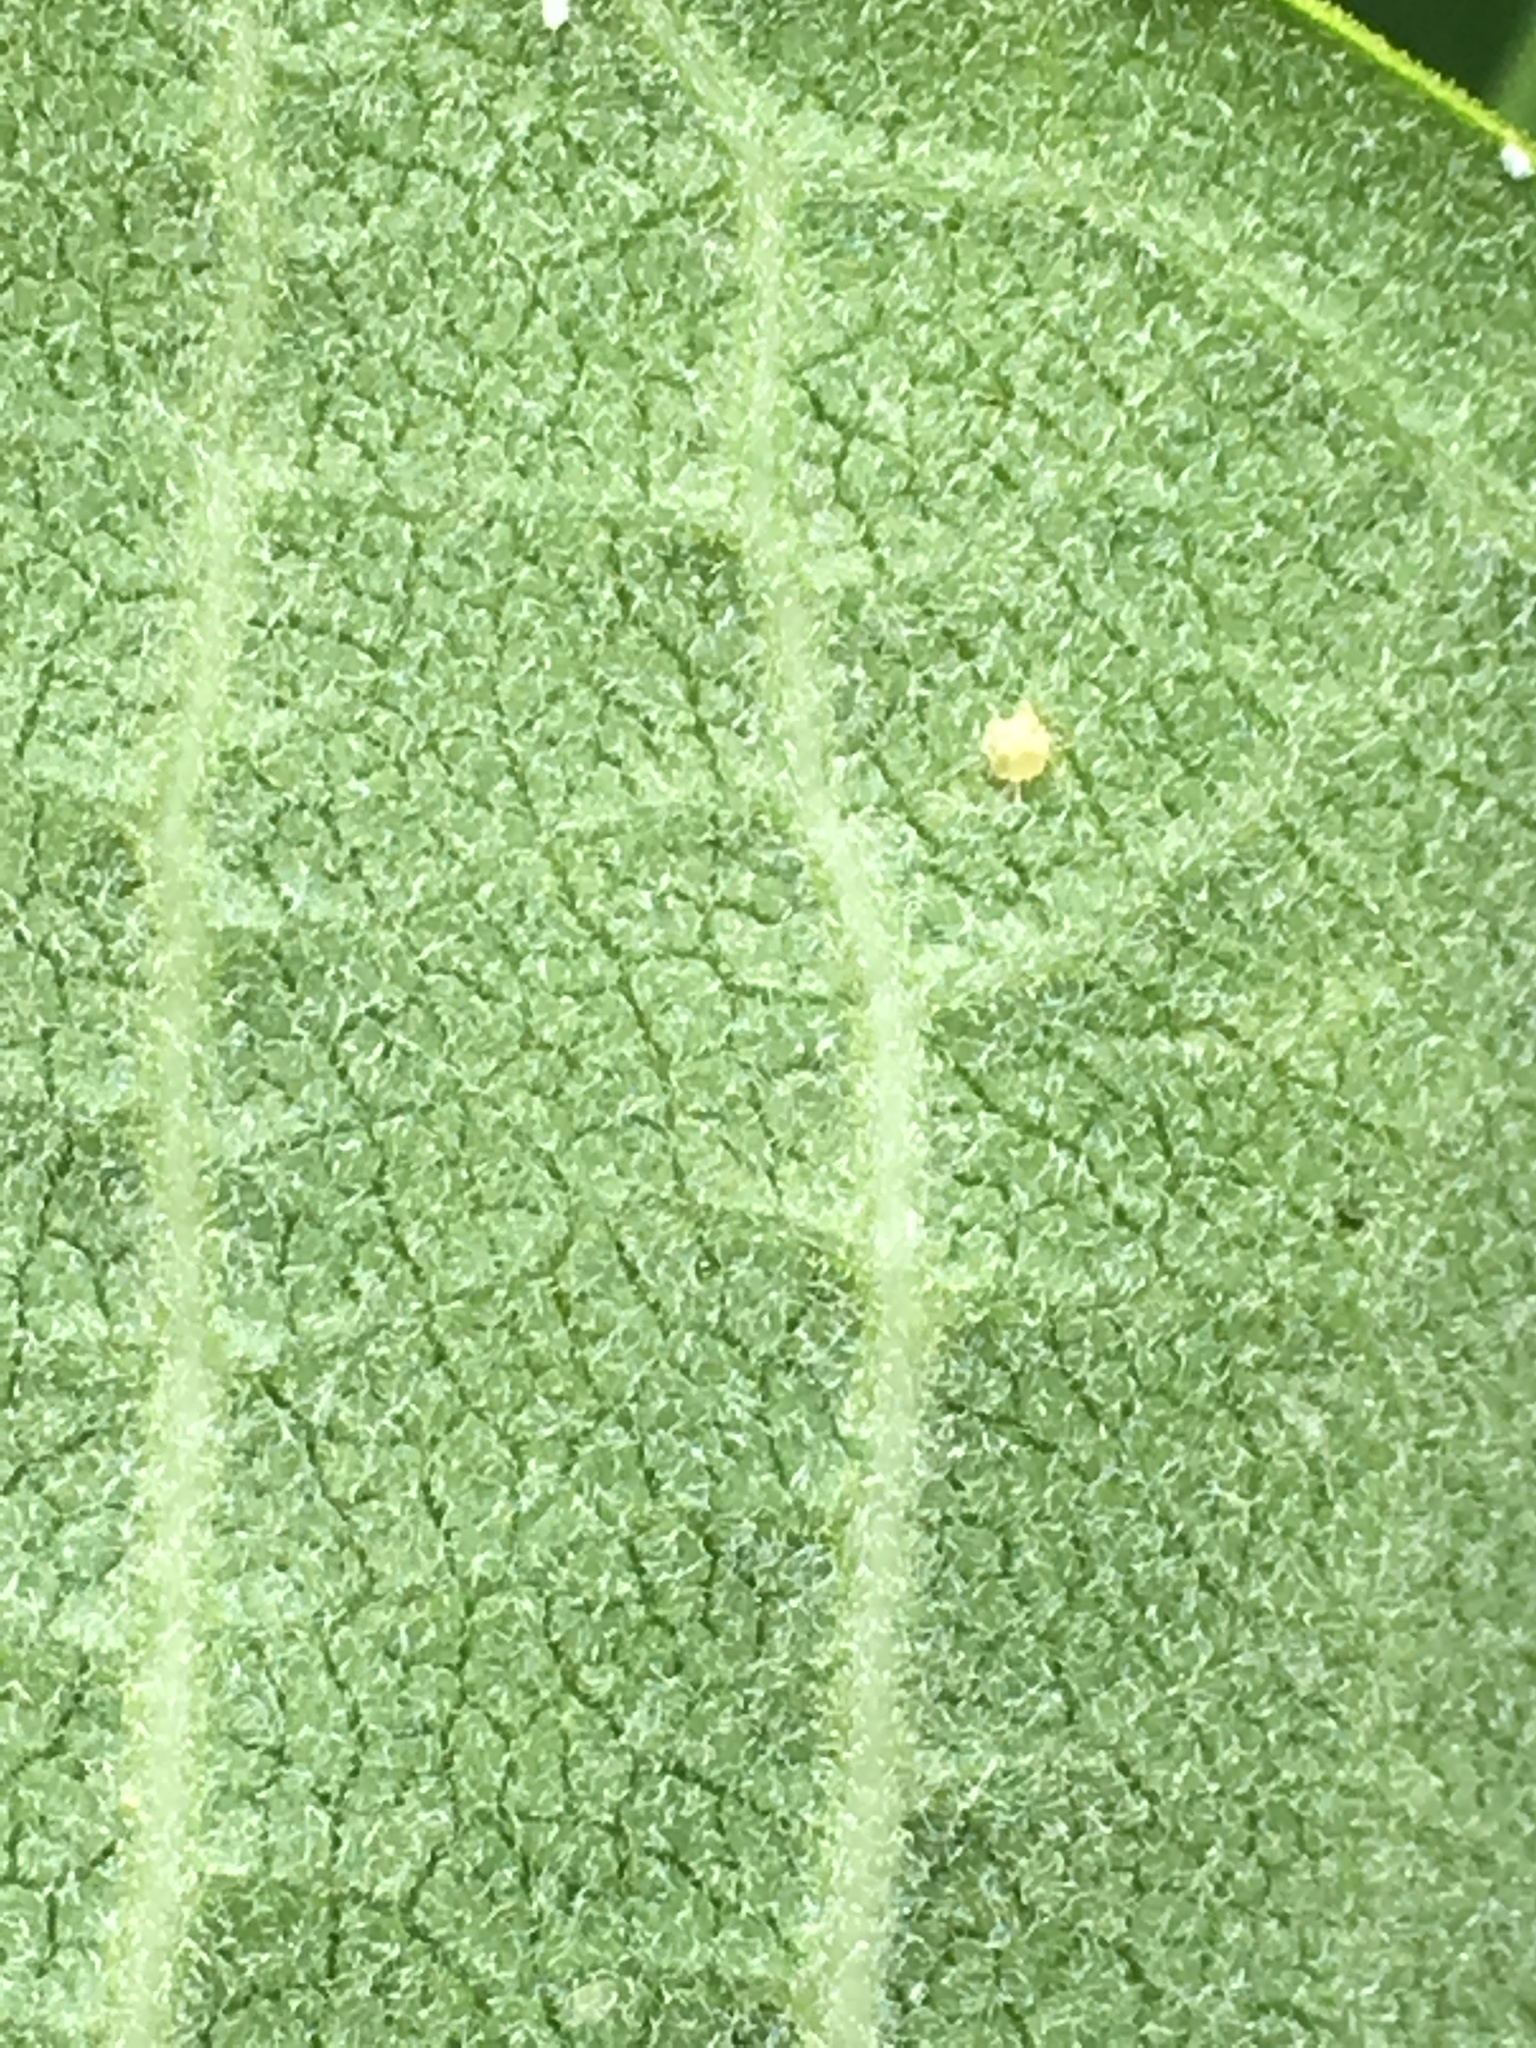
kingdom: Animalia
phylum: Arthropoda
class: Insecta
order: Lepidoptera
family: Nymphalidae
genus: Danaus
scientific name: Danaus plexippus
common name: Monarch
